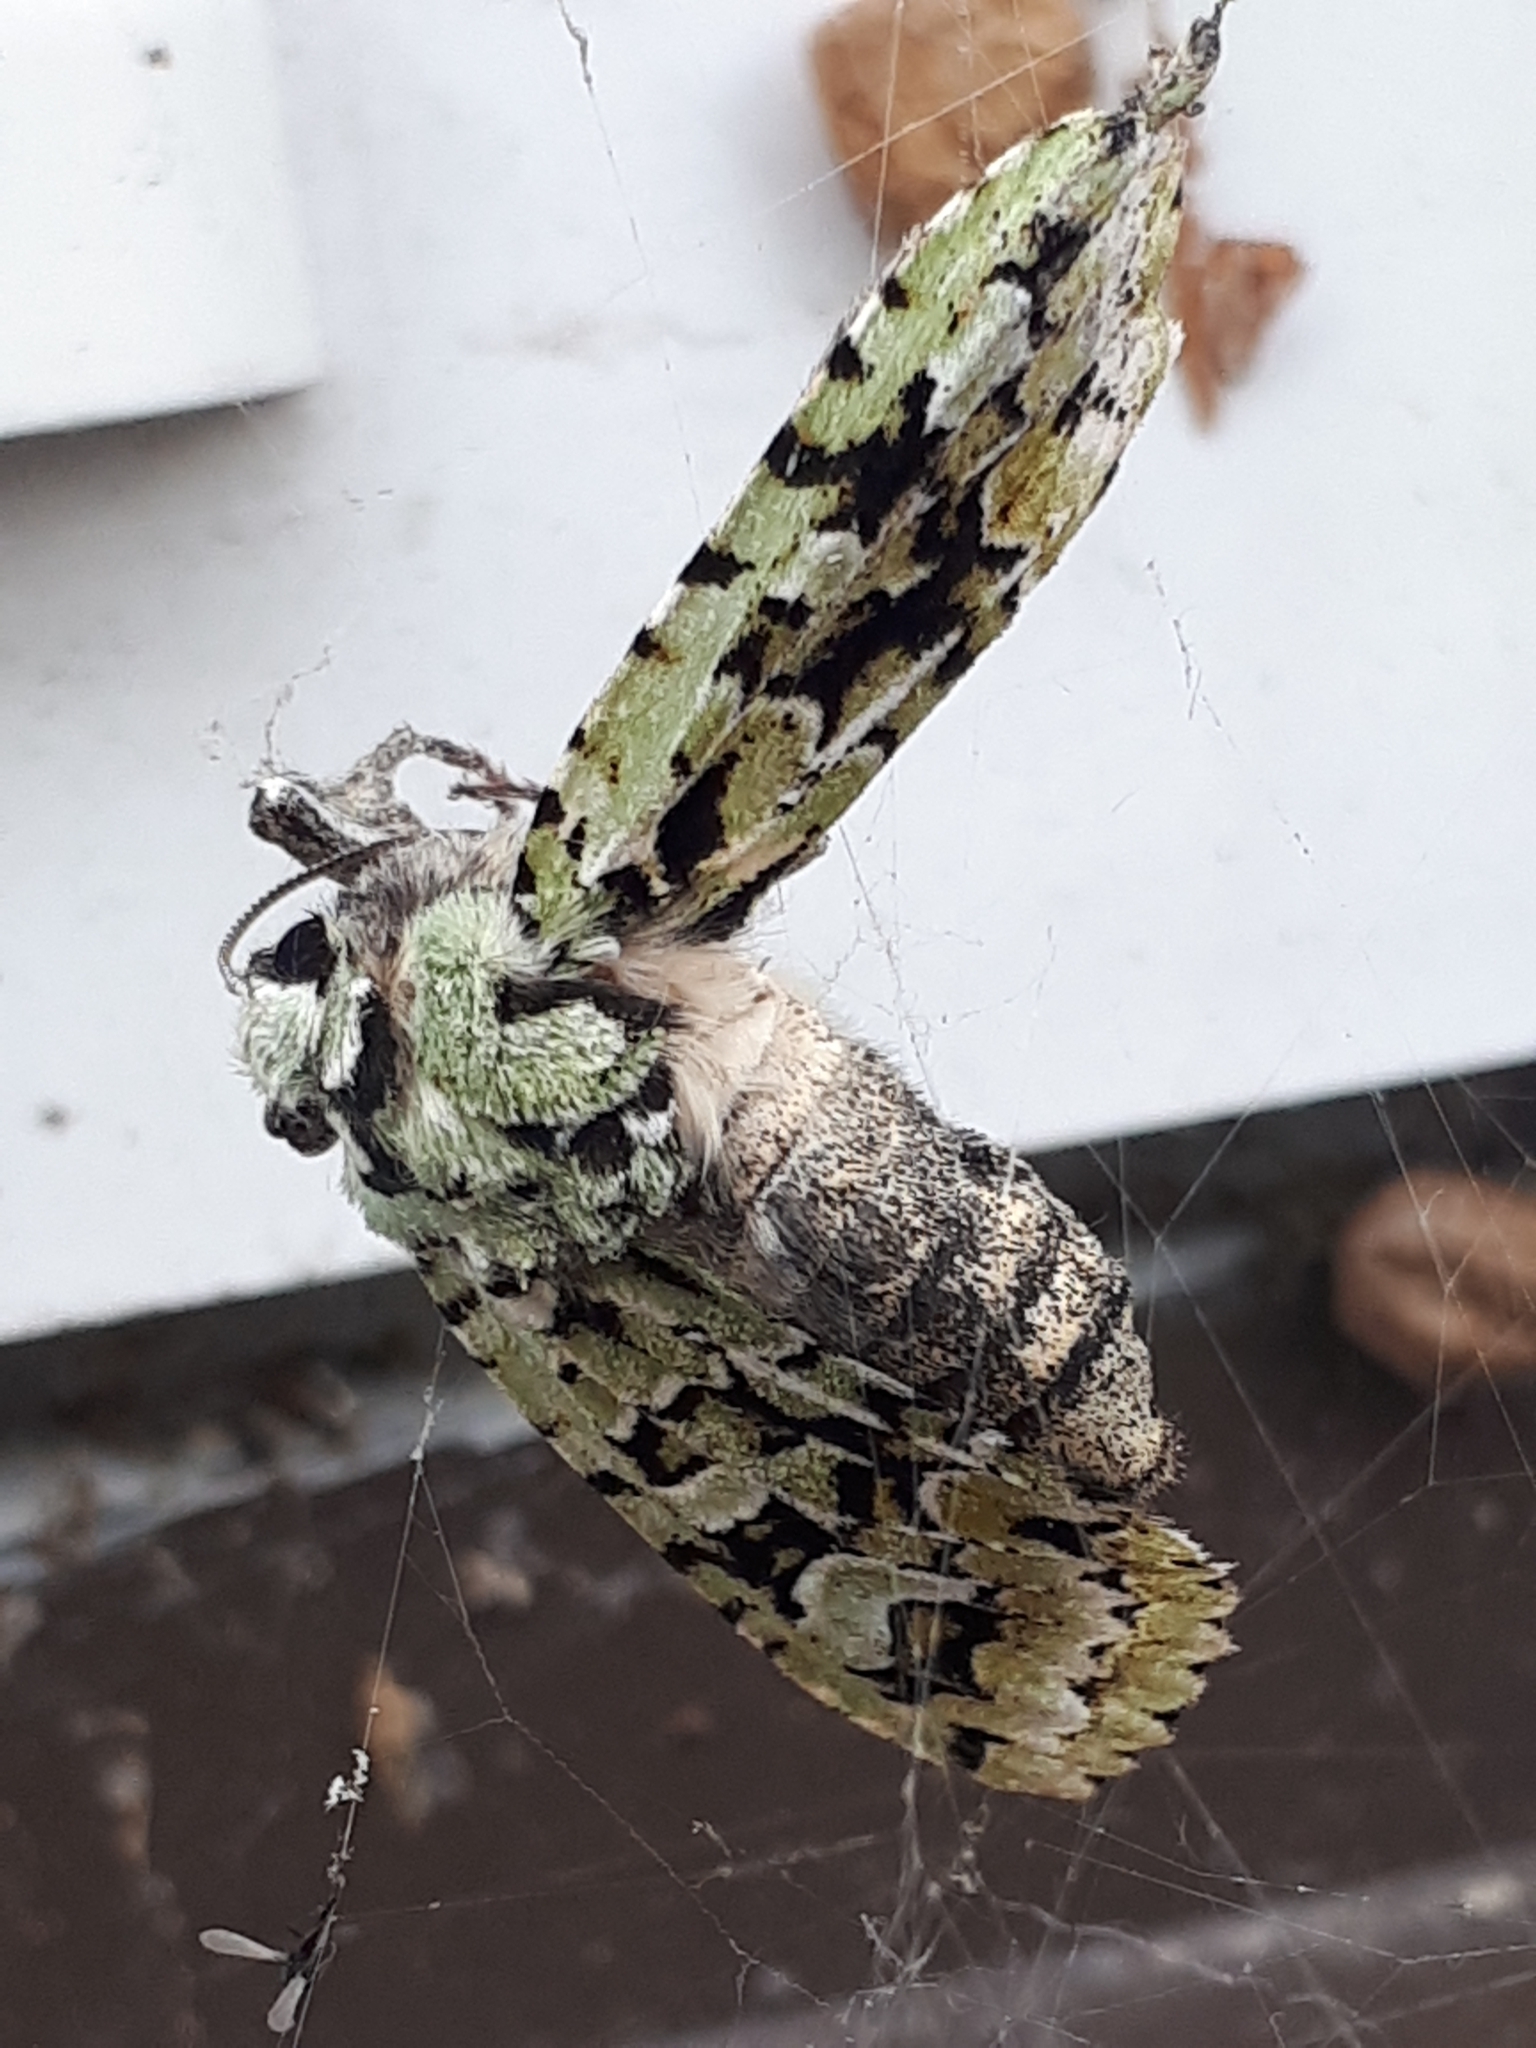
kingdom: Animalia
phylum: Arthropoda
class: Insecta
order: Lepidoptera
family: Noctuidae
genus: Griposia
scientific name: Griposia aprilina
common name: Merveille du jour
